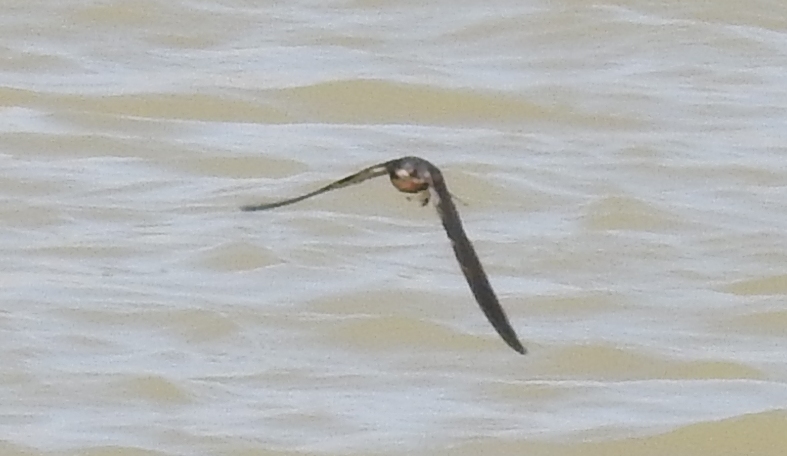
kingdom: Animalia
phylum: Chordata
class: Aves
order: Passeriformes
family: Hirundinidae
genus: Hirundo
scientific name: Hirundo rustica
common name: Barn swallow
